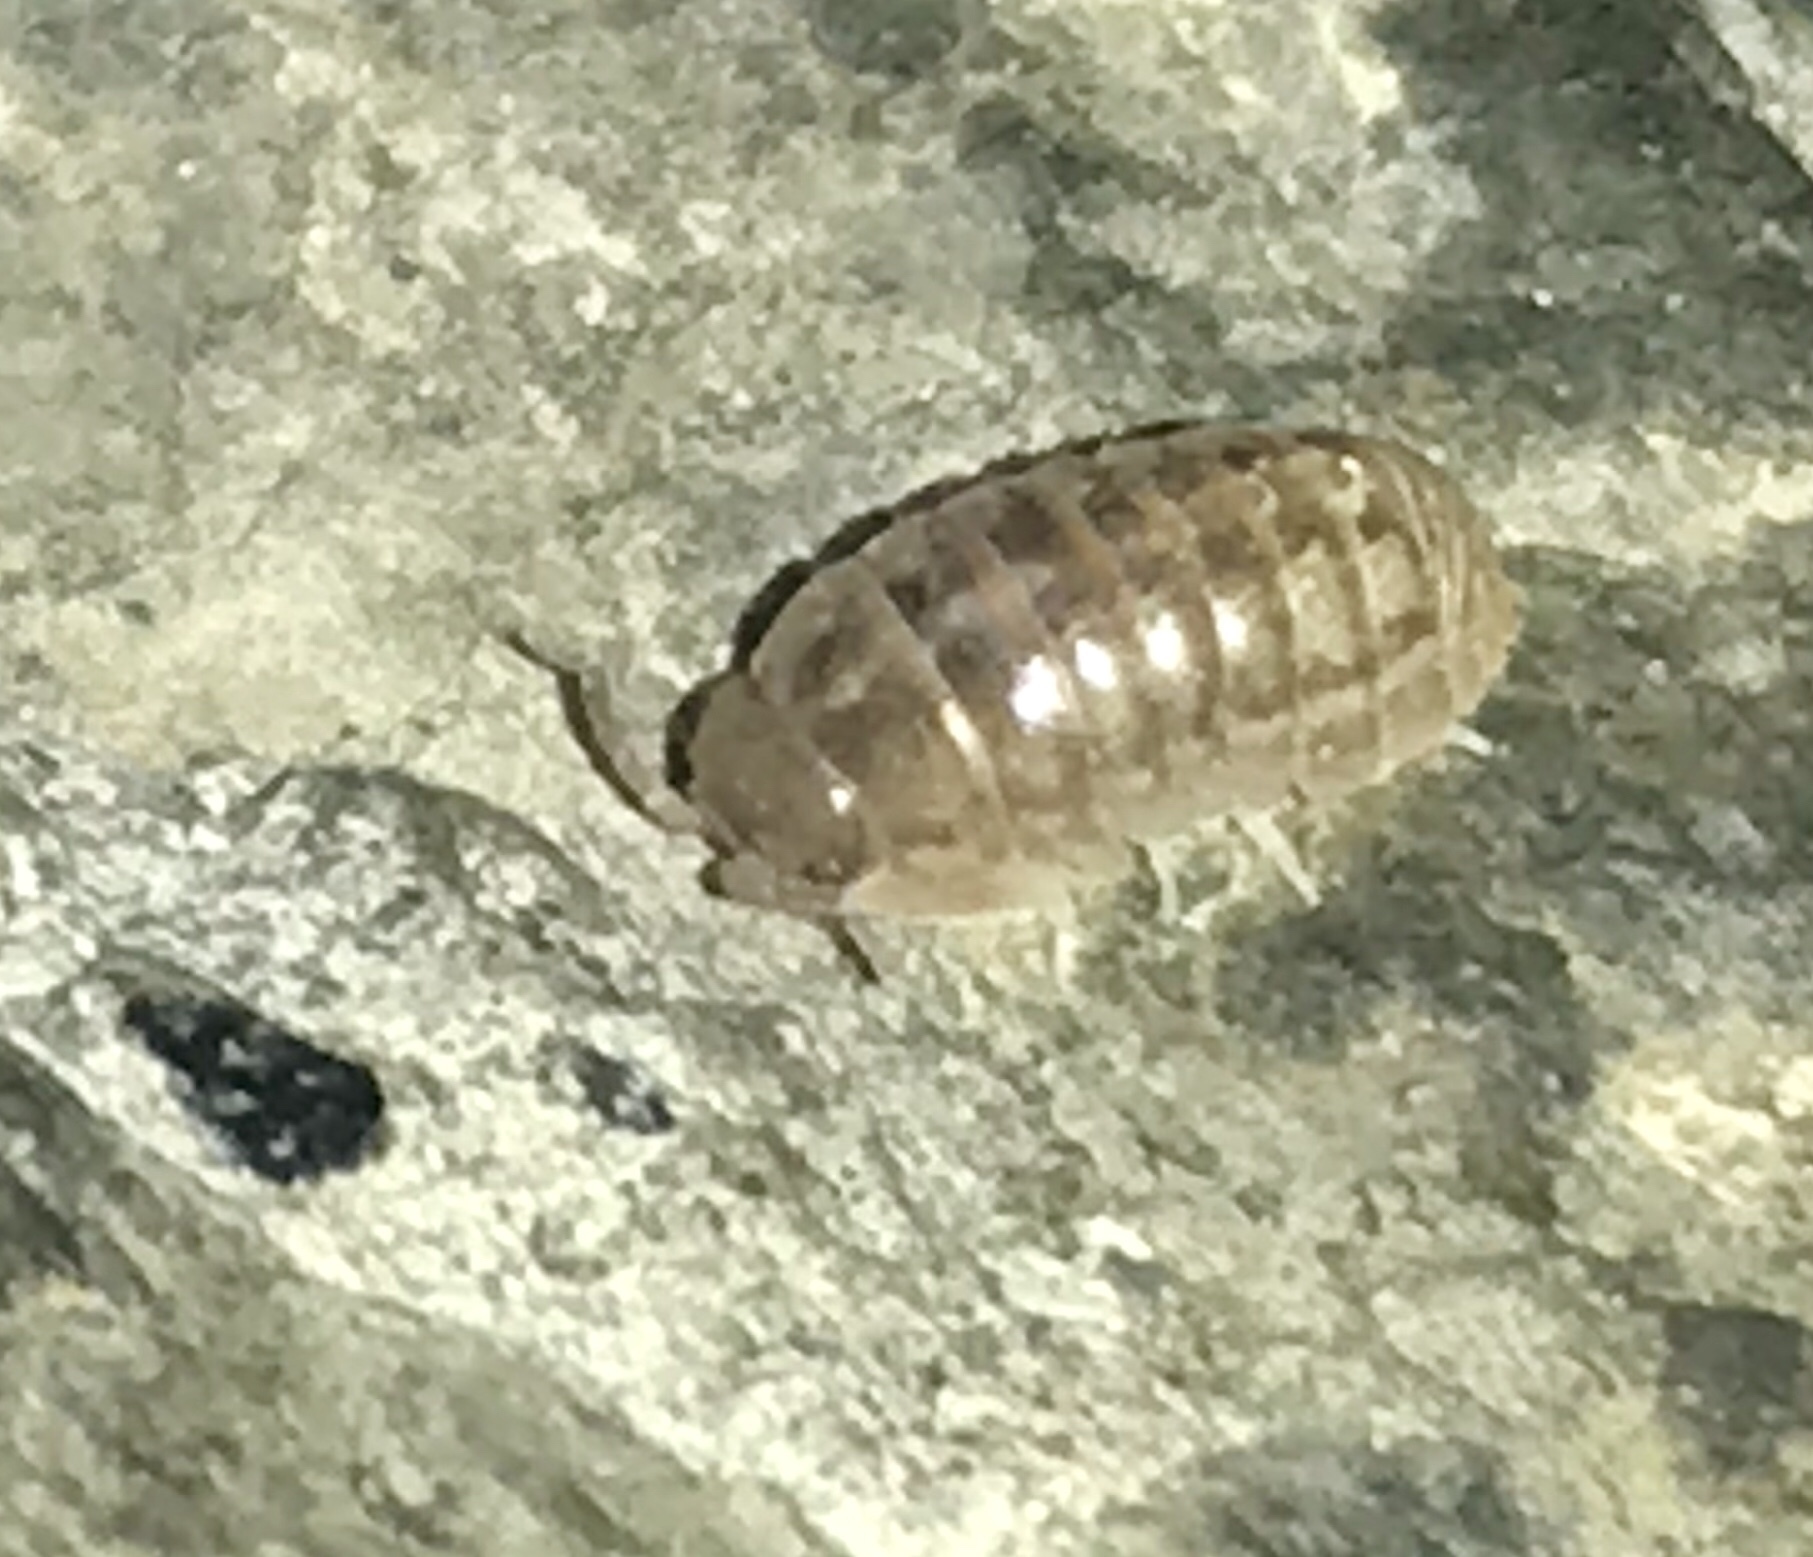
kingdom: Animalia
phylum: Arthropoda
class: Malacostraca
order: Isopoda
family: Armadillidiidae
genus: Armadillidium
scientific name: Armadillidium vulgare
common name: Common pill woodlouse
